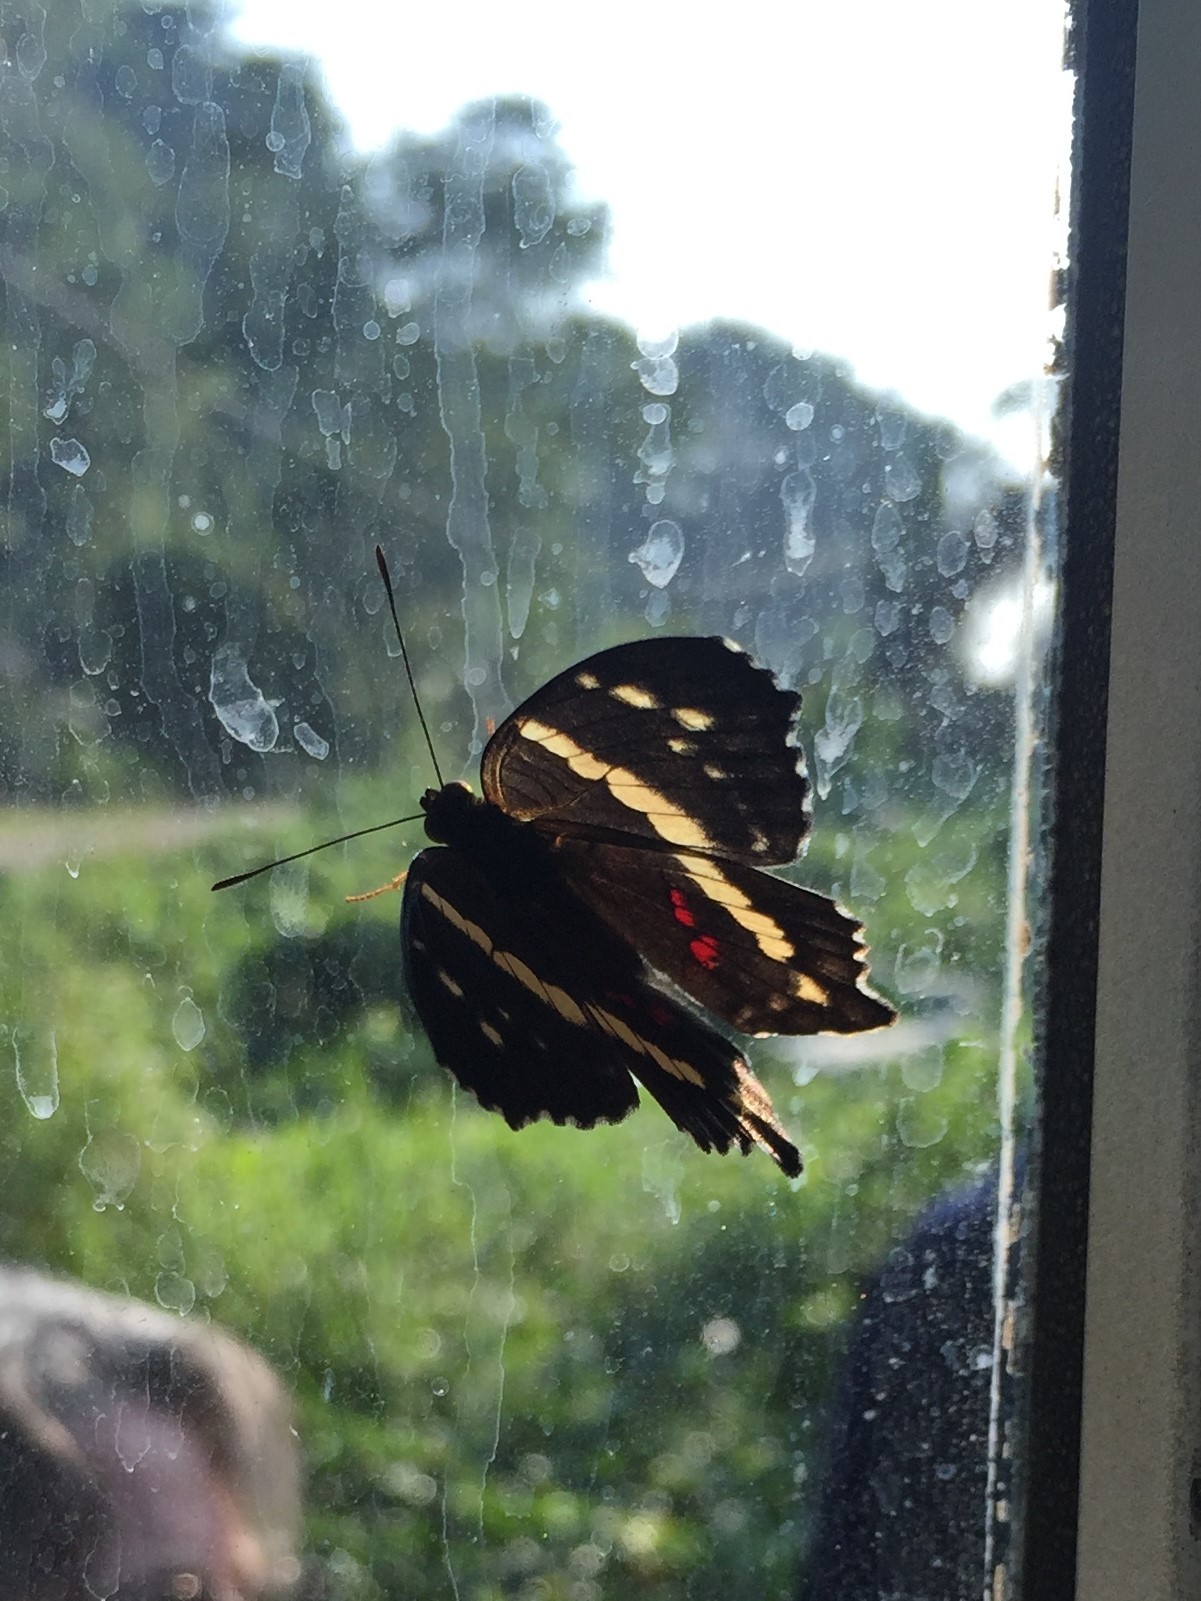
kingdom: Animalia
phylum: Arthropoda
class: Insecta
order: Lepidoptera
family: Nymphalidae
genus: Anartia
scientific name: Anartia fatima
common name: Banded peacock
